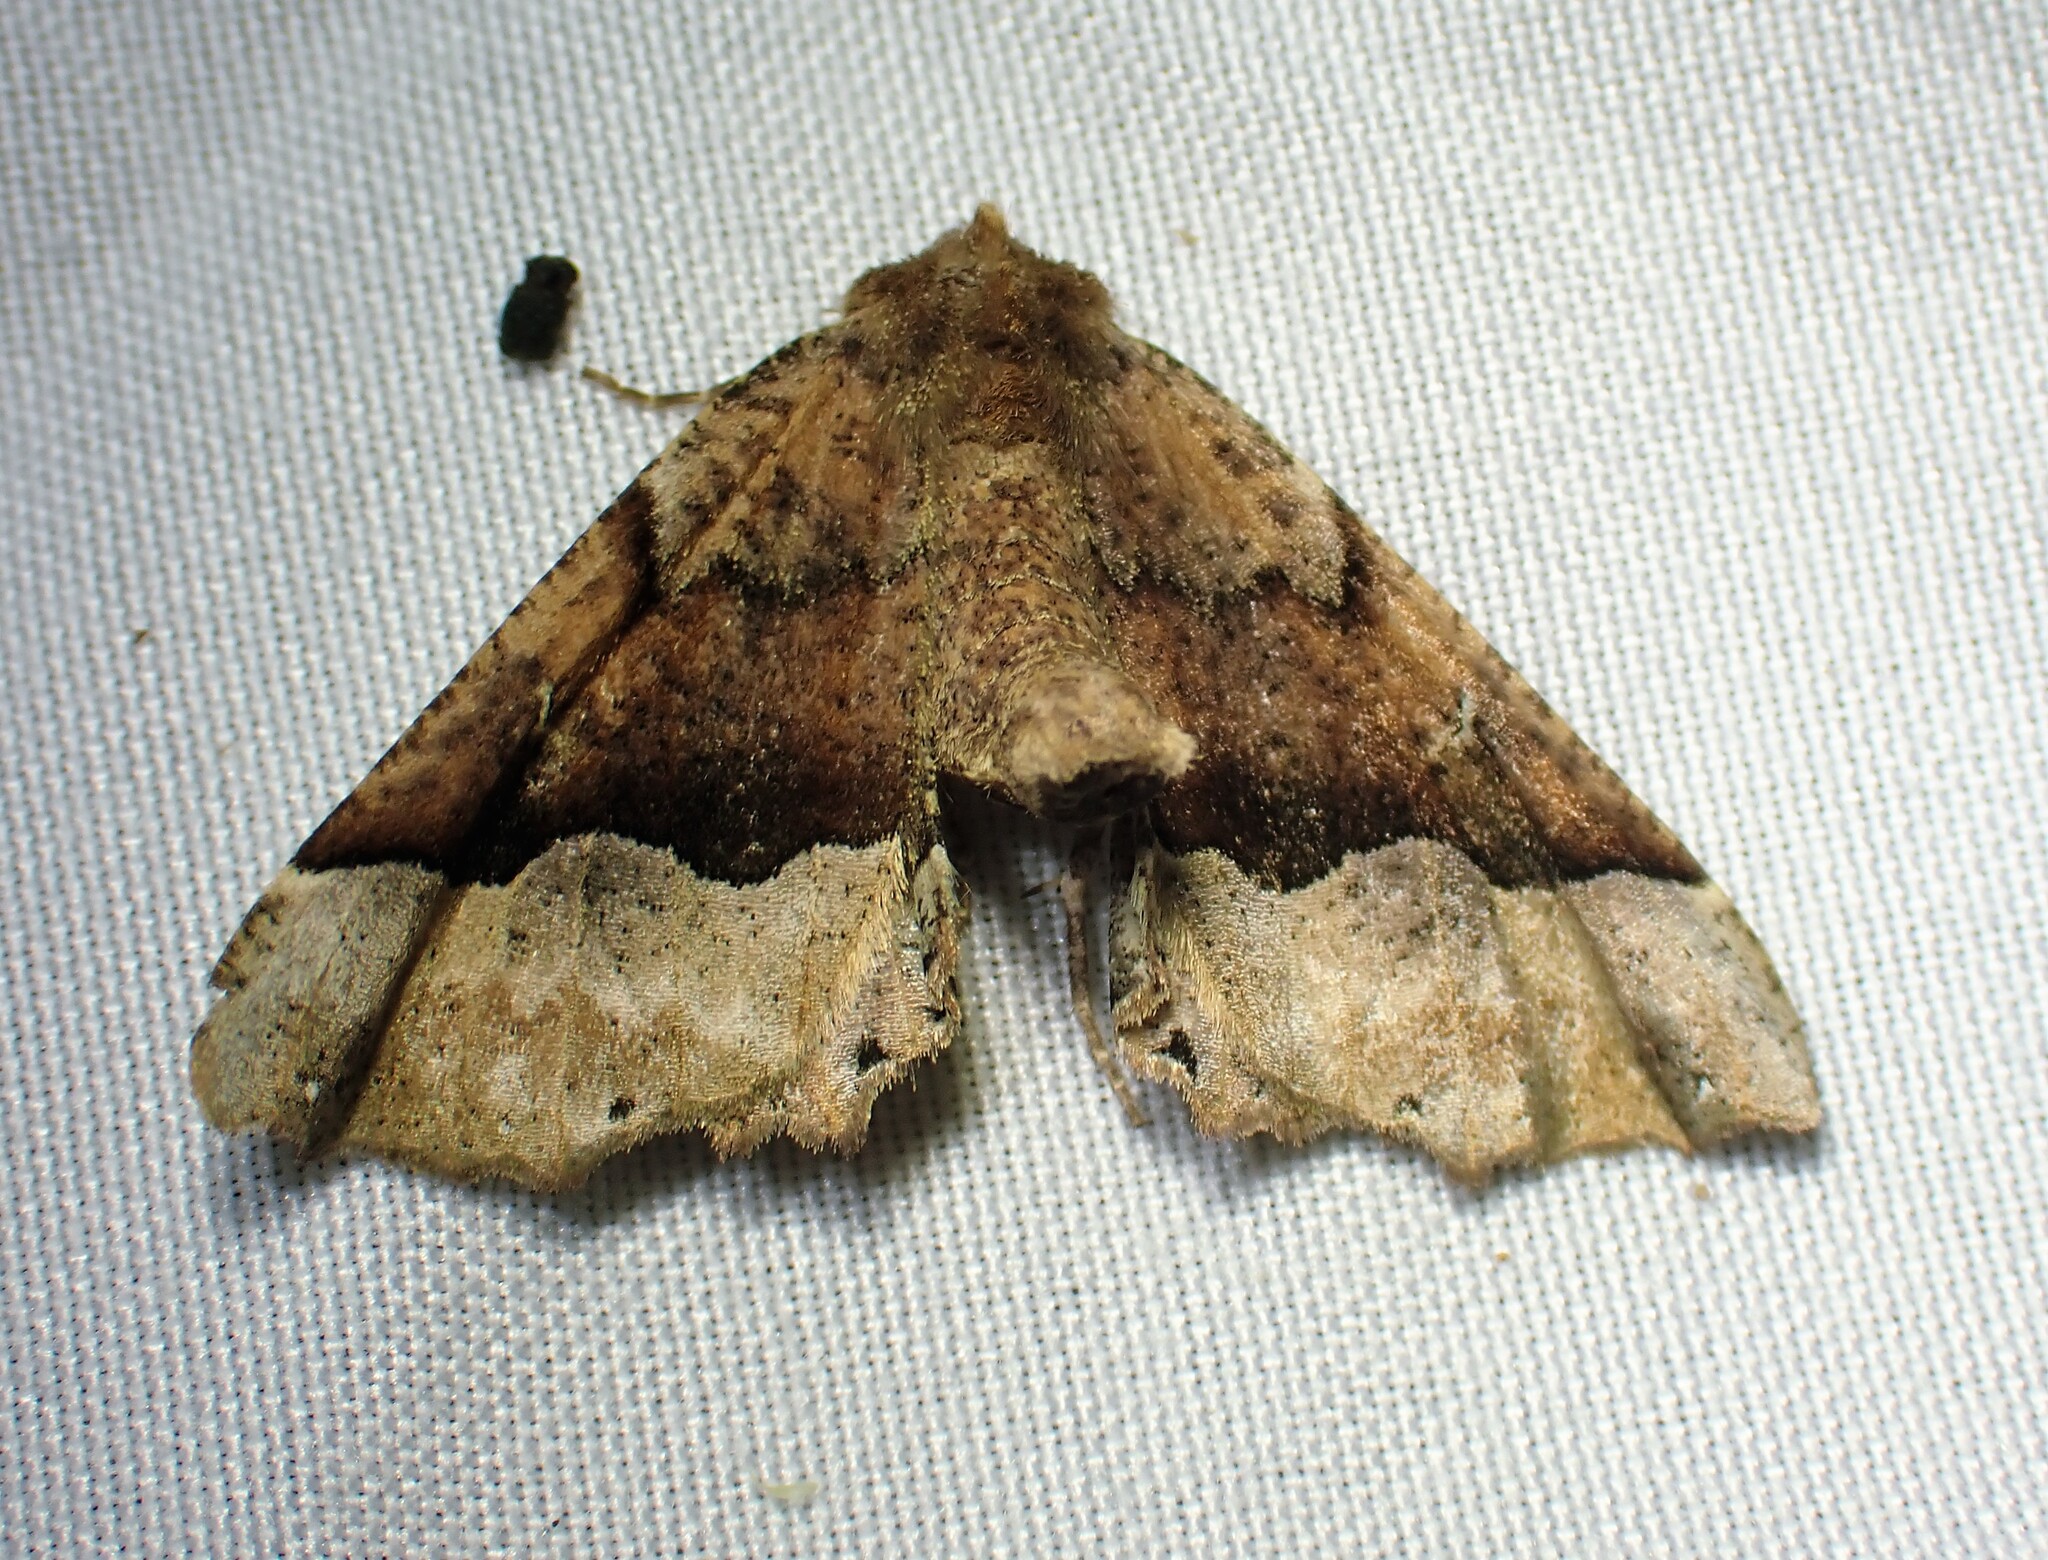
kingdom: Animalia
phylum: Arthropoda
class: Insecta
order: Lepidoptera
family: Geometridae
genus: Pero
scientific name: Pero morrisonaria
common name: Morrison's pero
